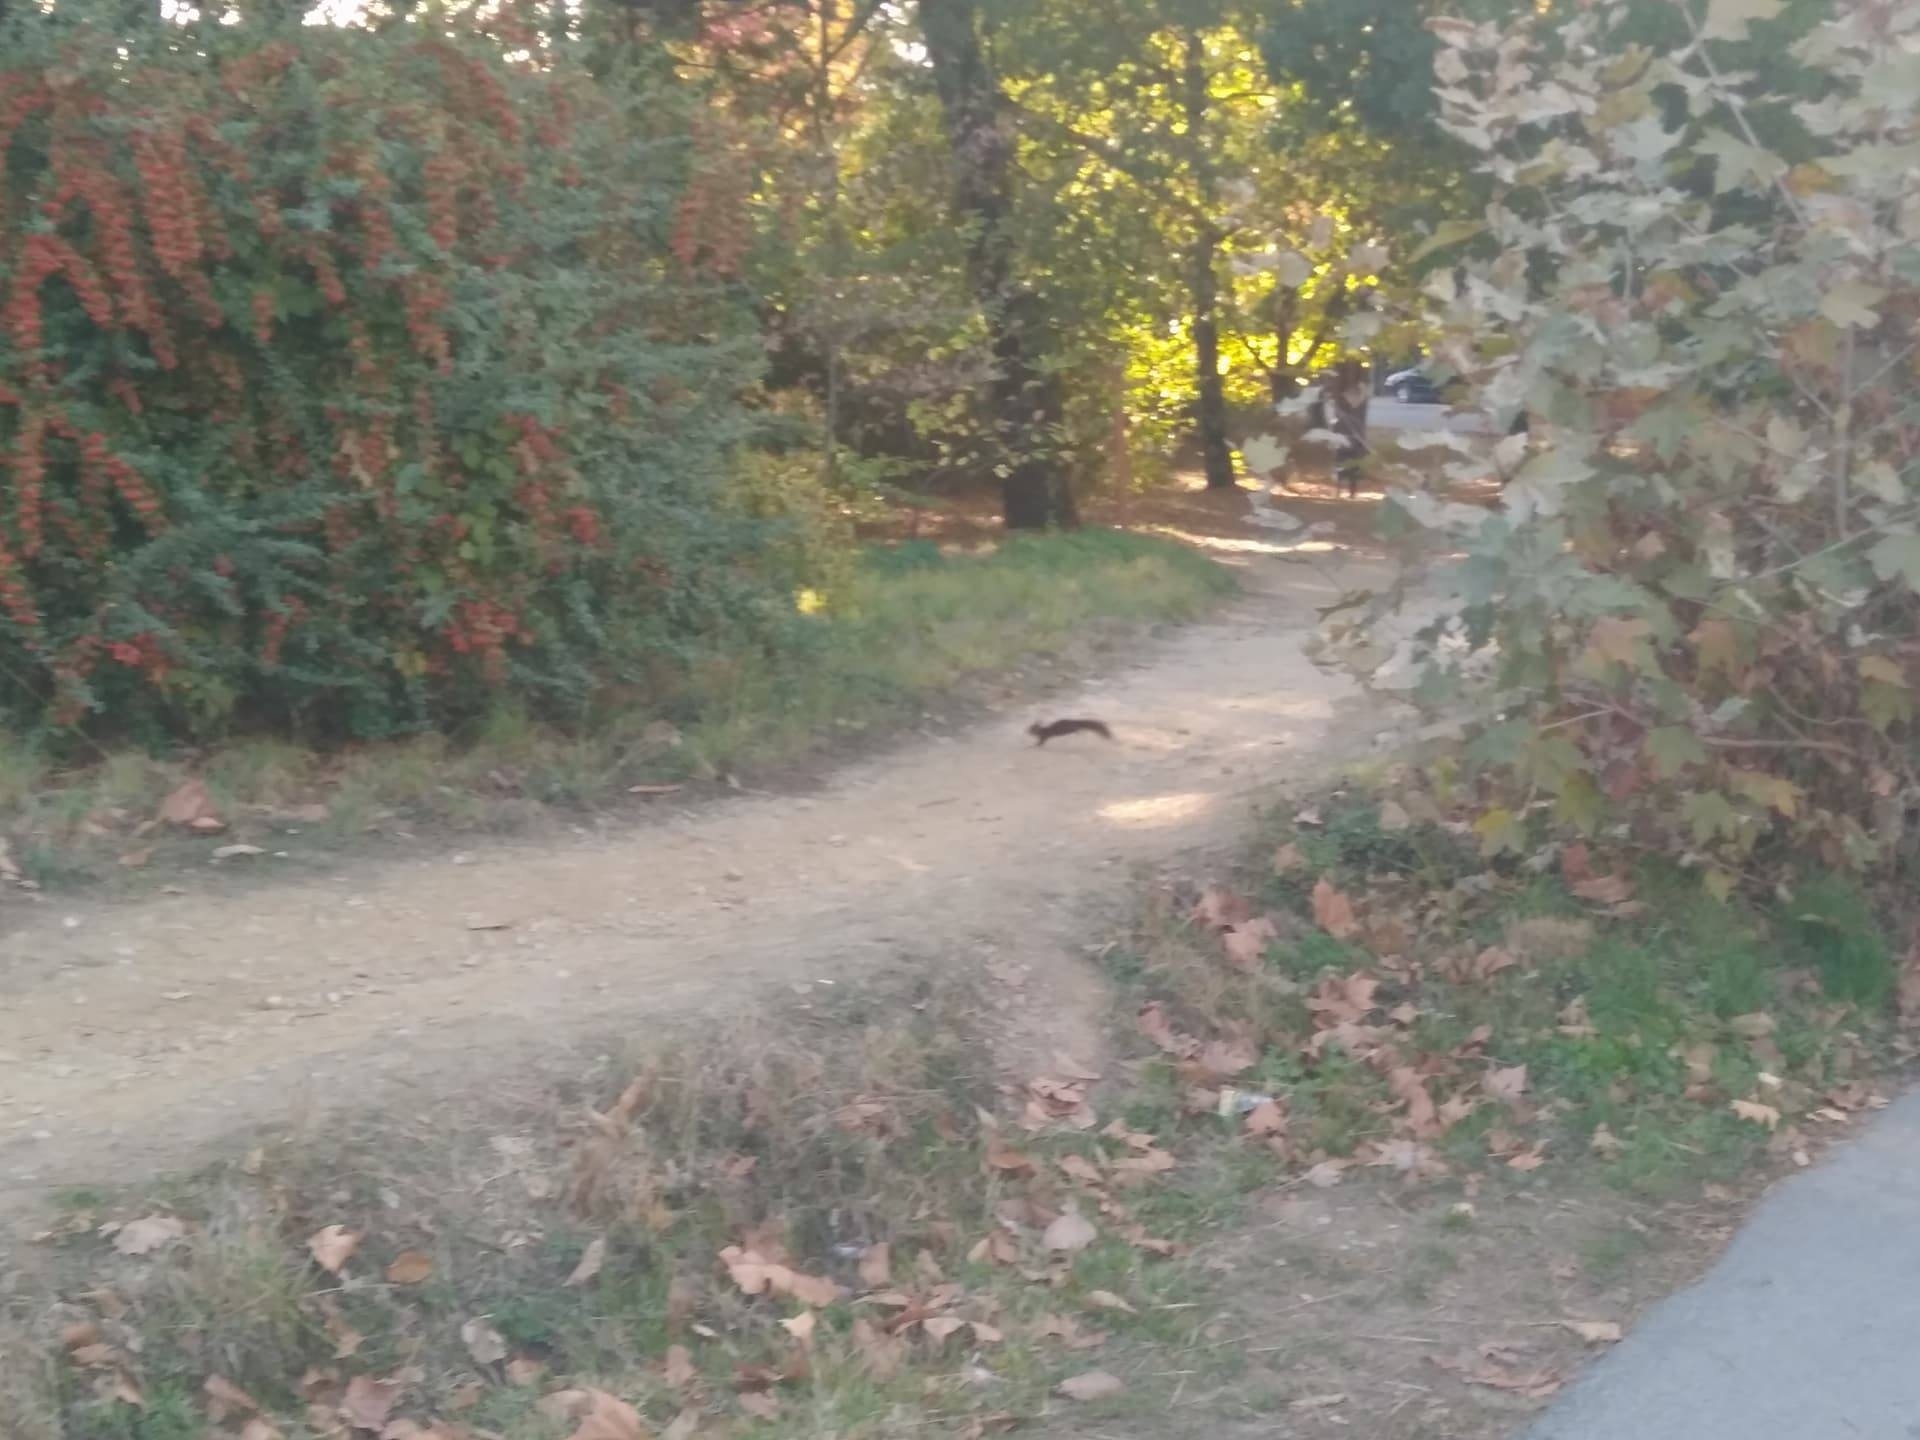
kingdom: Animalia
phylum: Chordata
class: Mammalia
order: Rodentia
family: Sciuridae
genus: Sciurus
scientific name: Sciurus vulgaris
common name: Eurasian red squirrel
